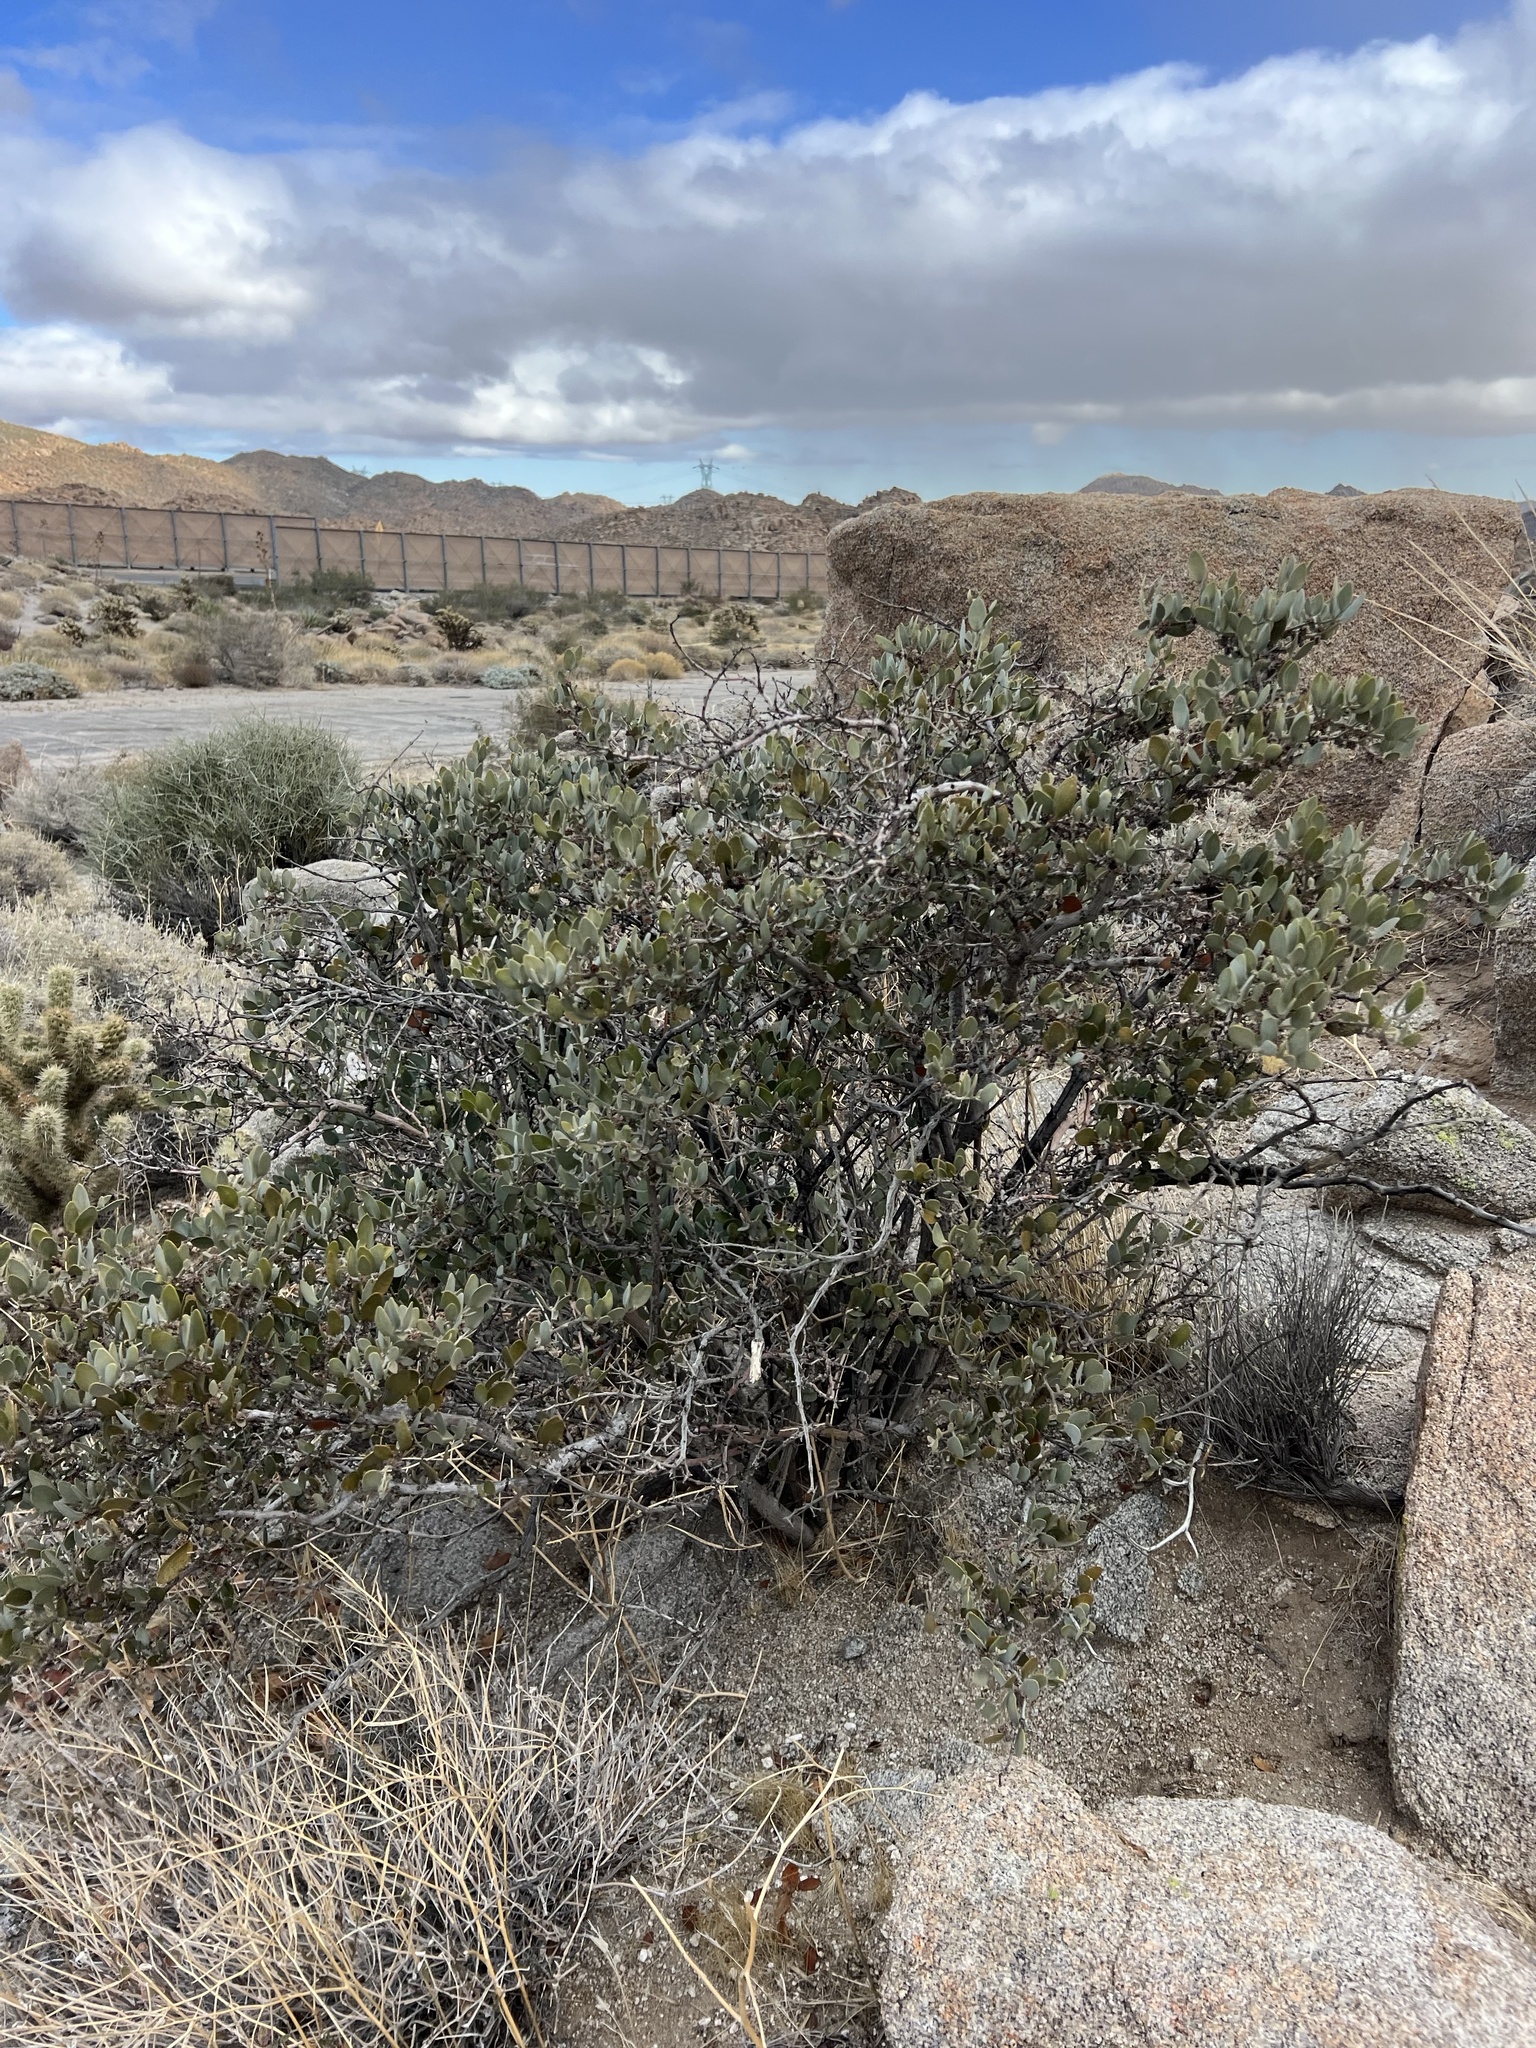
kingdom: Plantae
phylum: Tracheophyta
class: Magnoliopsida
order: Caryophyllales
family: Simmondsiaceae
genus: Simmondsia
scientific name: Simmondsia chinensis
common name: Jojoba
